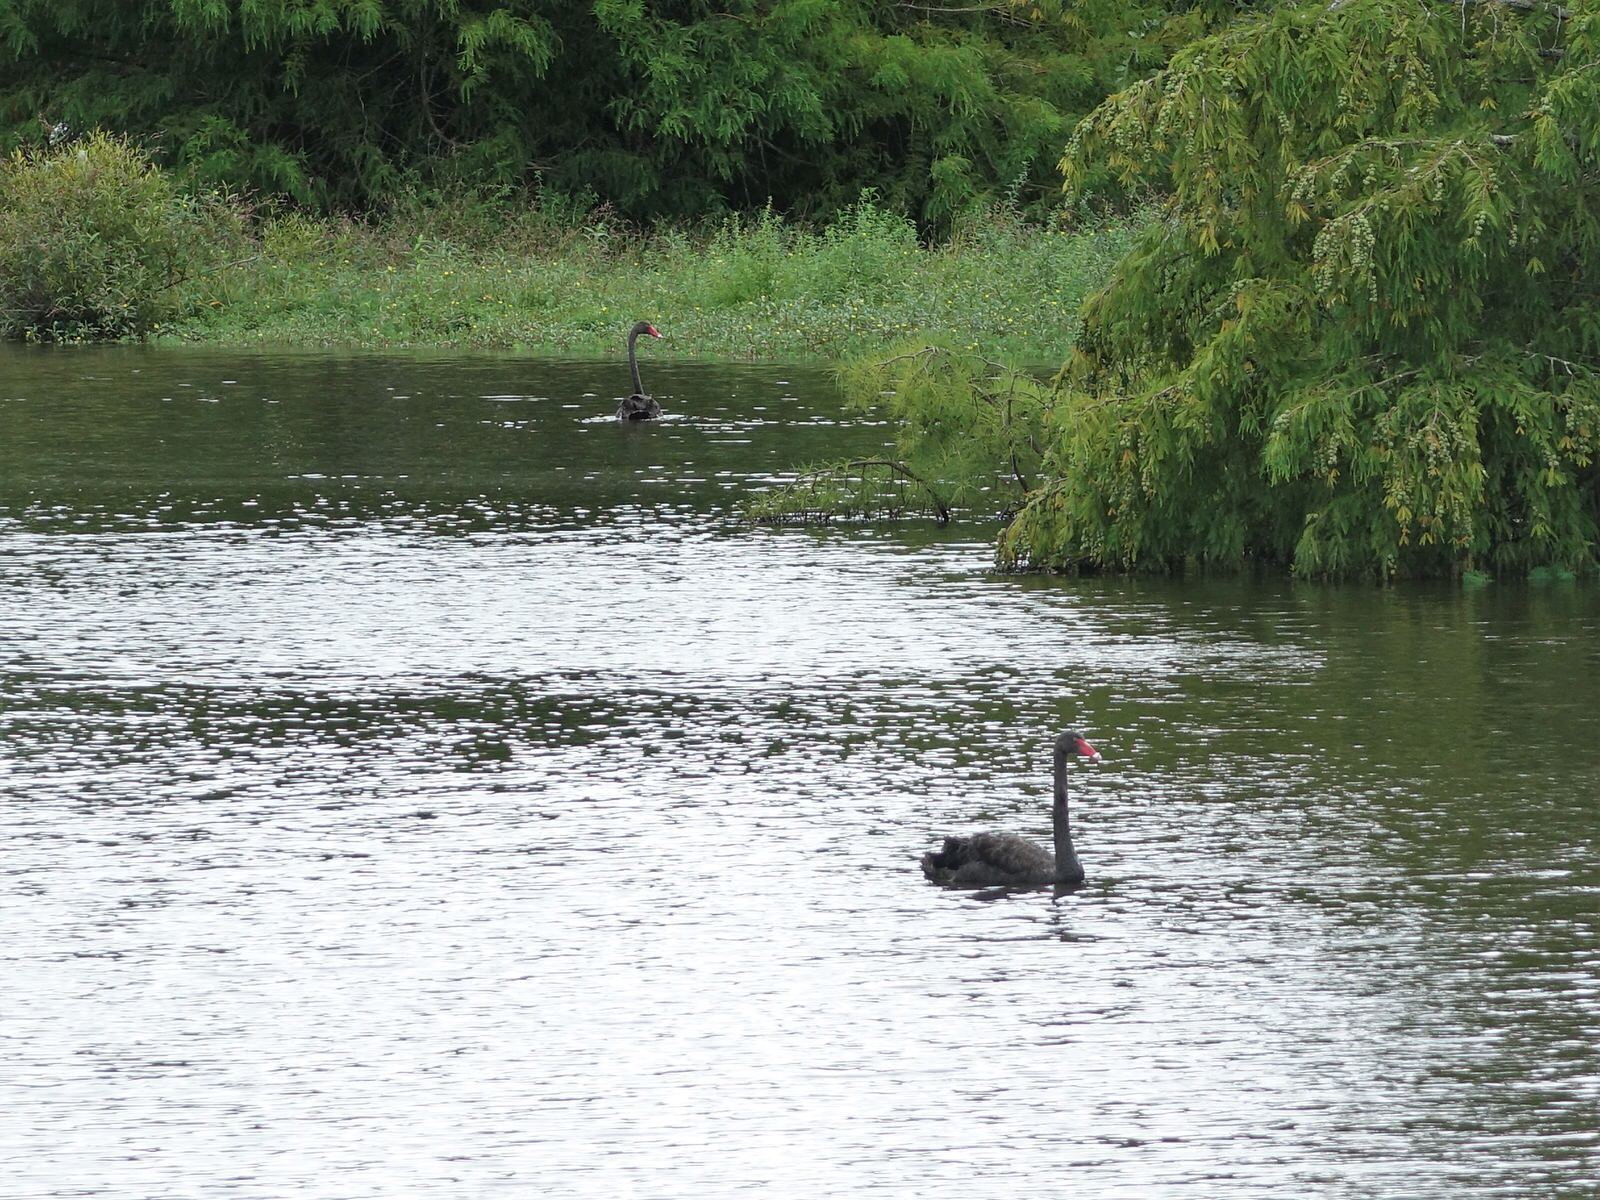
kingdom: Animalia
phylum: Chordata
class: Aves
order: Anseriformes
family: Anatidae
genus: Cygnus
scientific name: Cygnus atratus
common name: Black swan
